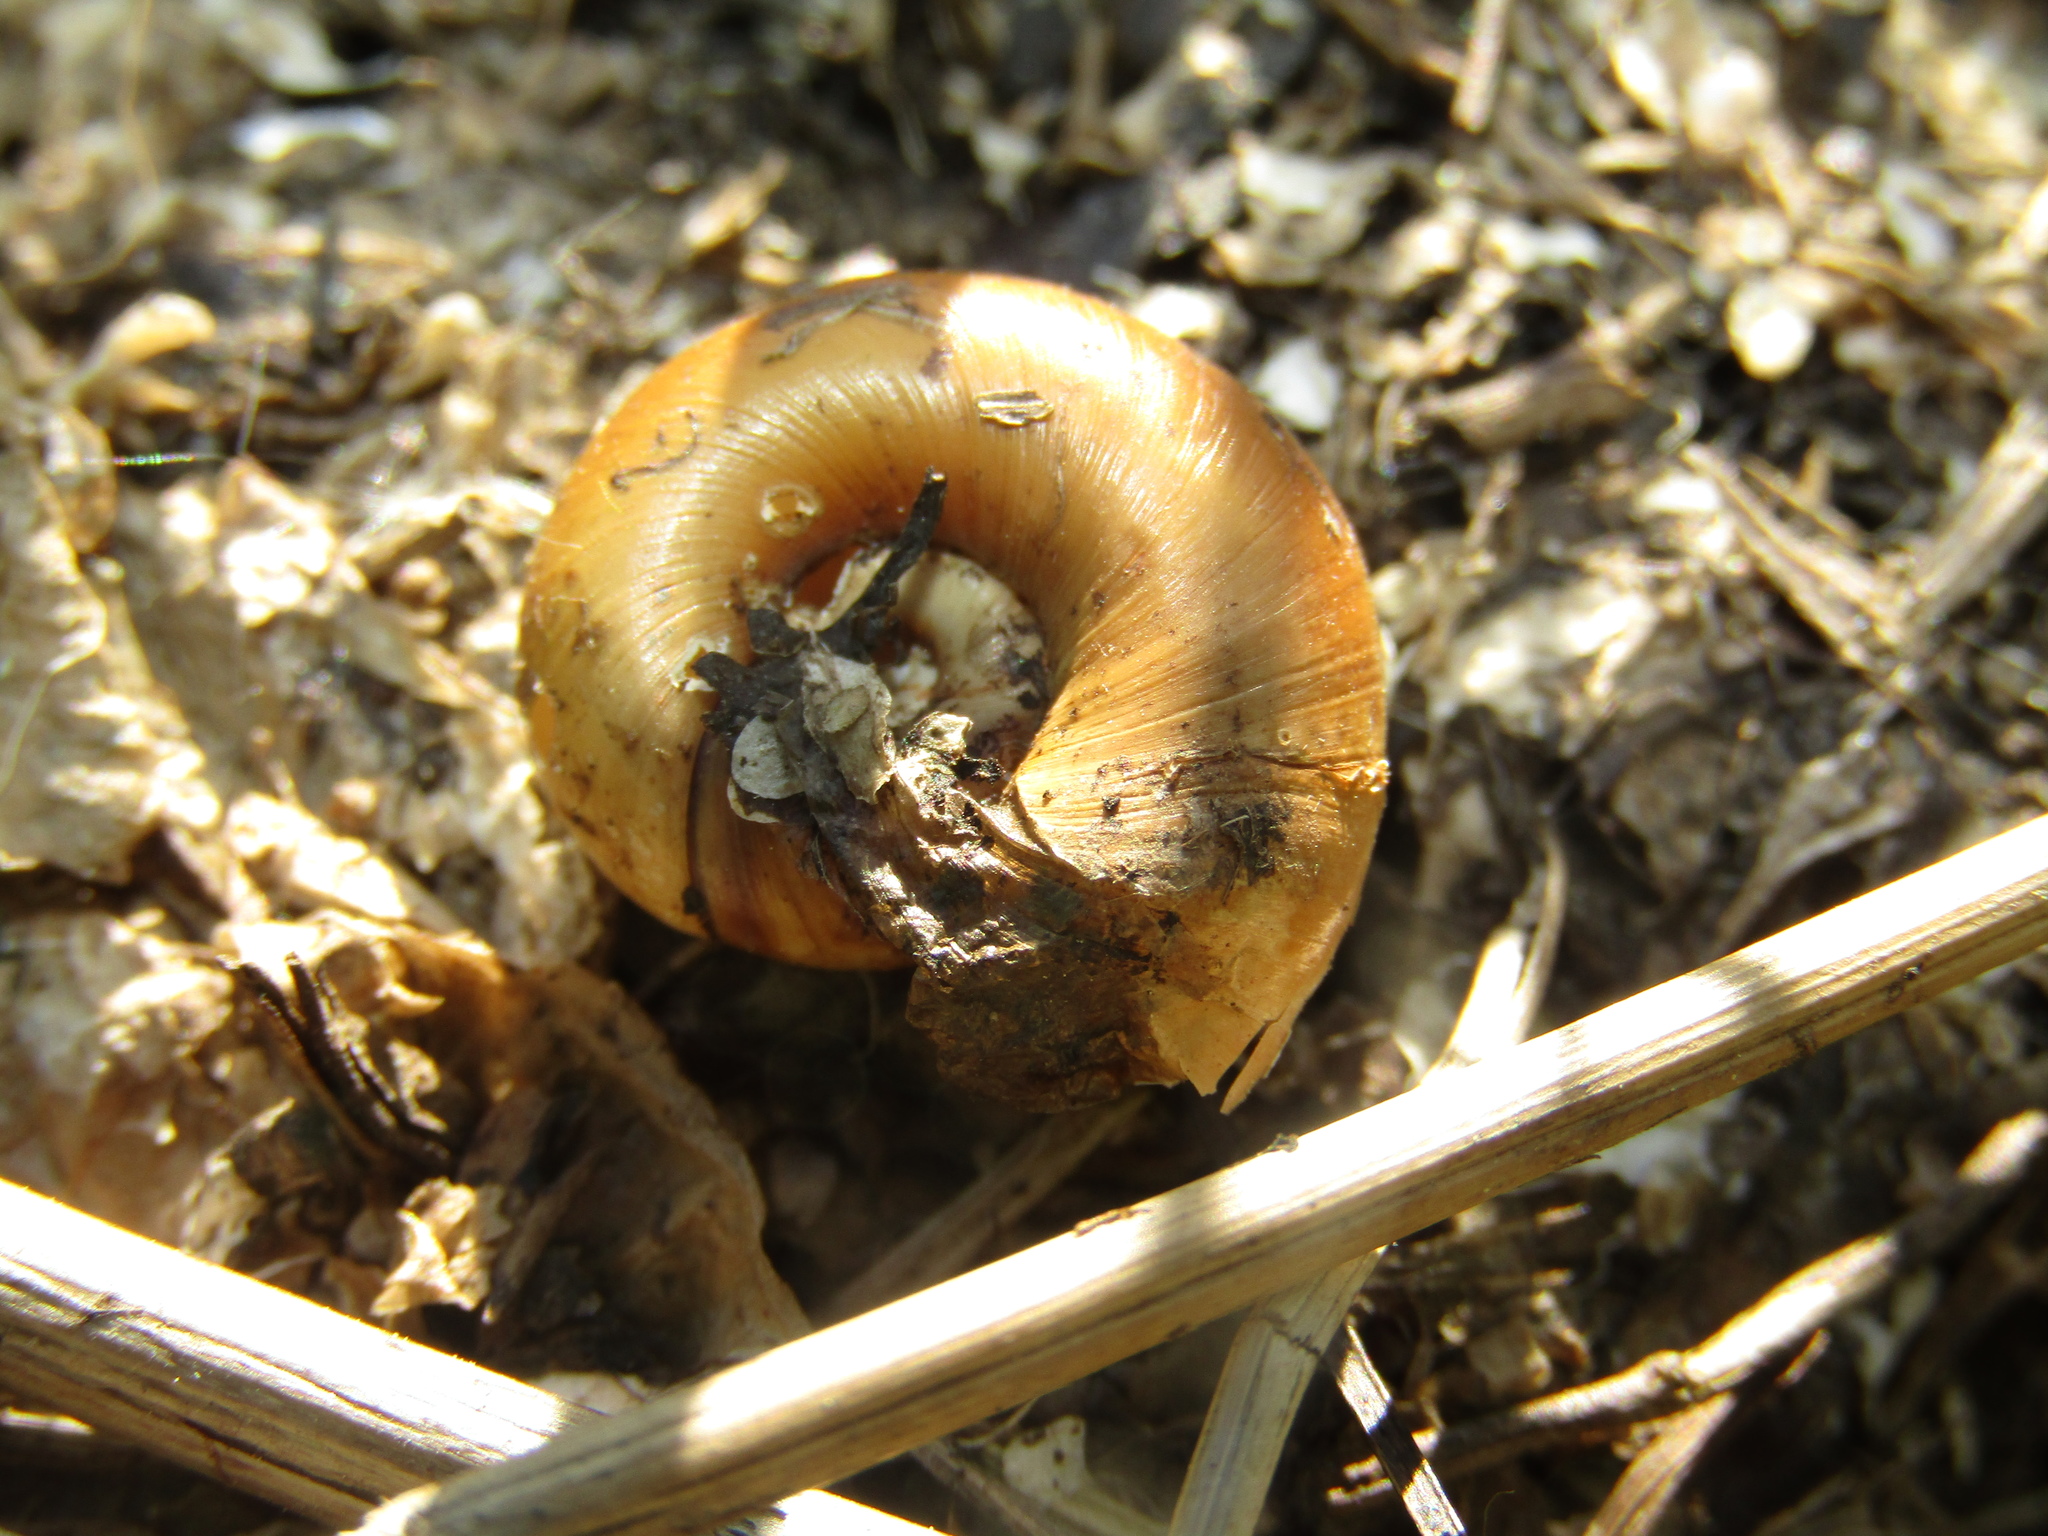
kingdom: Animalia
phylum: Mollusca
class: Gastropoda
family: Planorbidae
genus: Planorbarius
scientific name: Planorbarius corneus
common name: Great ramshorn
